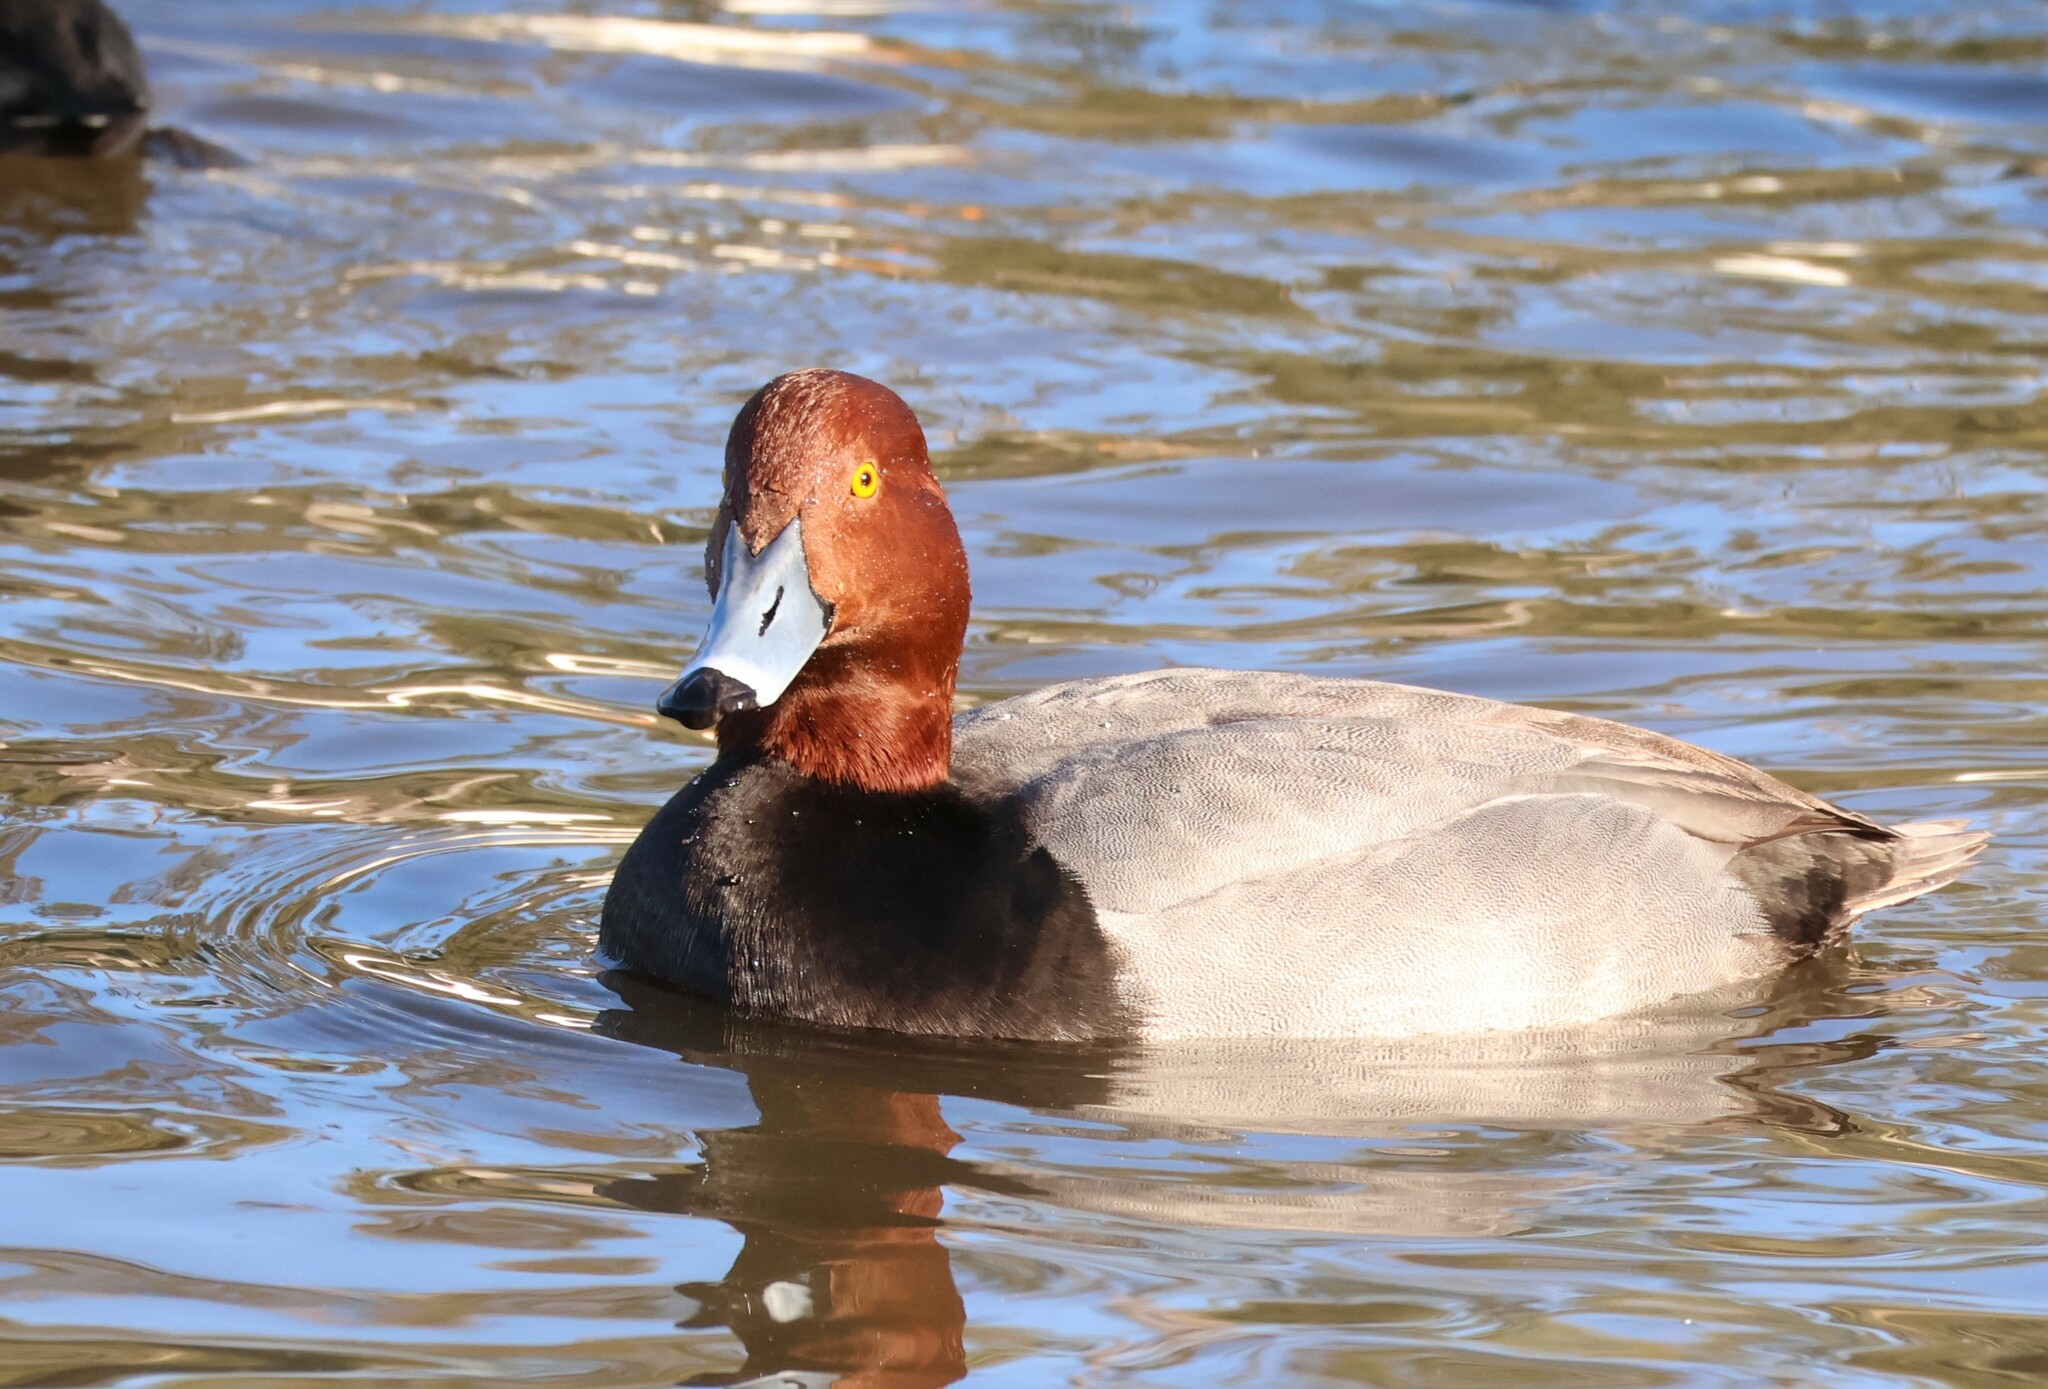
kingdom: Animalia
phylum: Chordata
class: Aves
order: Anseriformes
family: Anatidae
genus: Aythya
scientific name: Aythya americana
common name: Redhead
